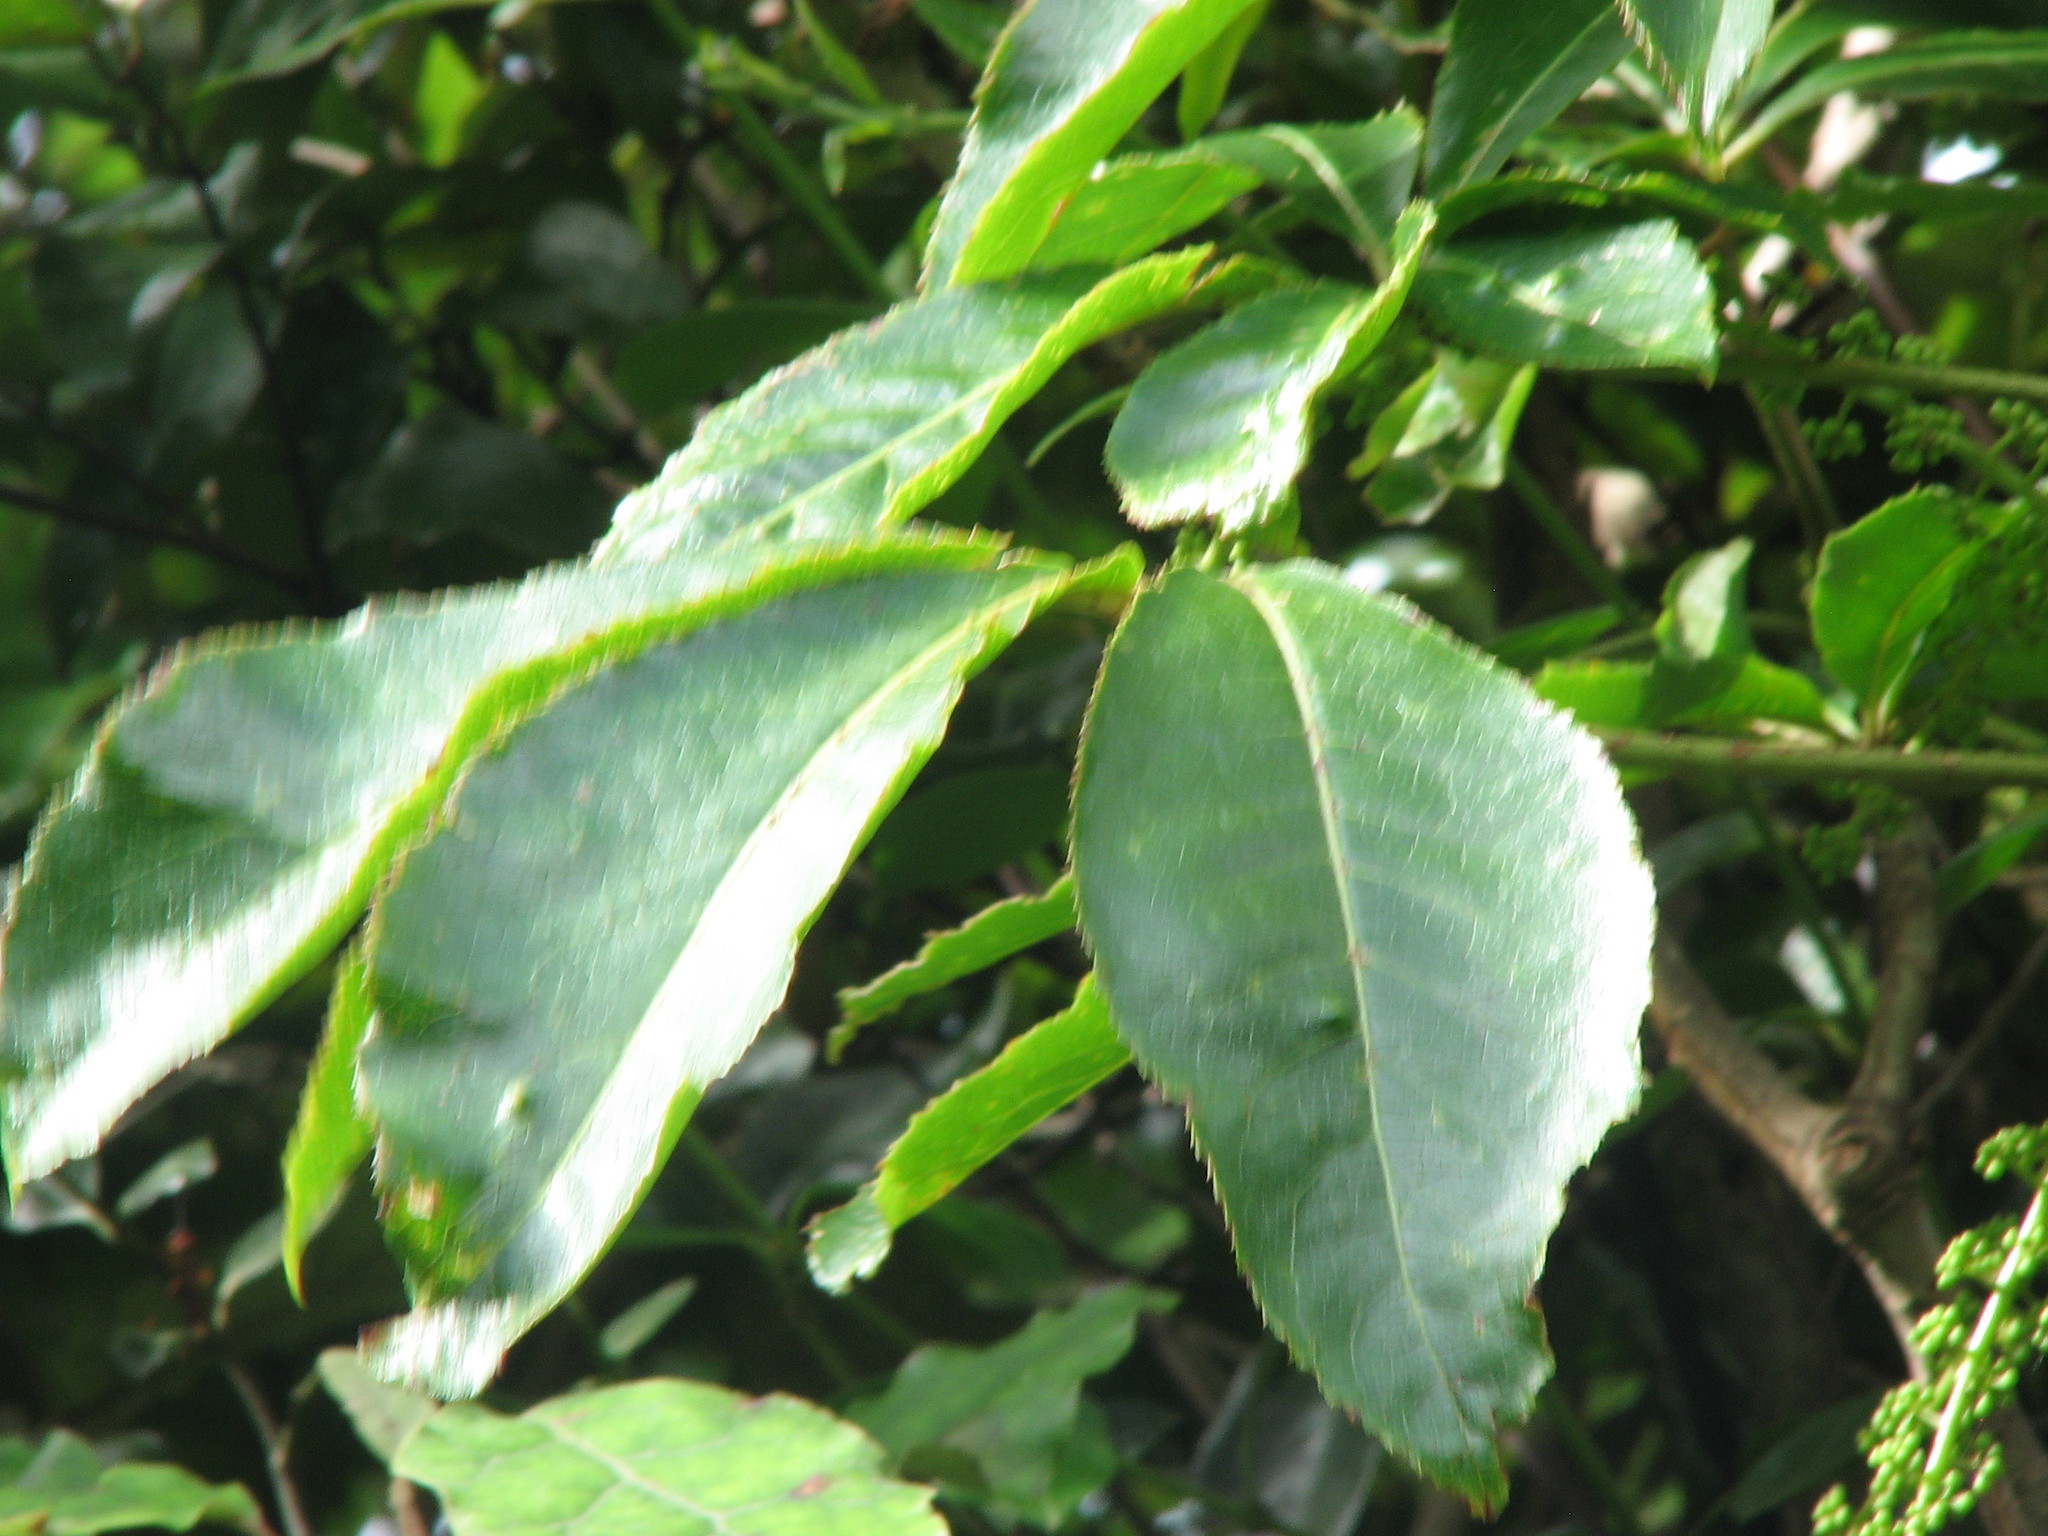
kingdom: Plantae
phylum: Tracheophyta
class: Magnoliopsida
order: Apiales
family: Araliaceae
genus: Schefflera
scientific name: Schefflera digitata
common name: Pate
